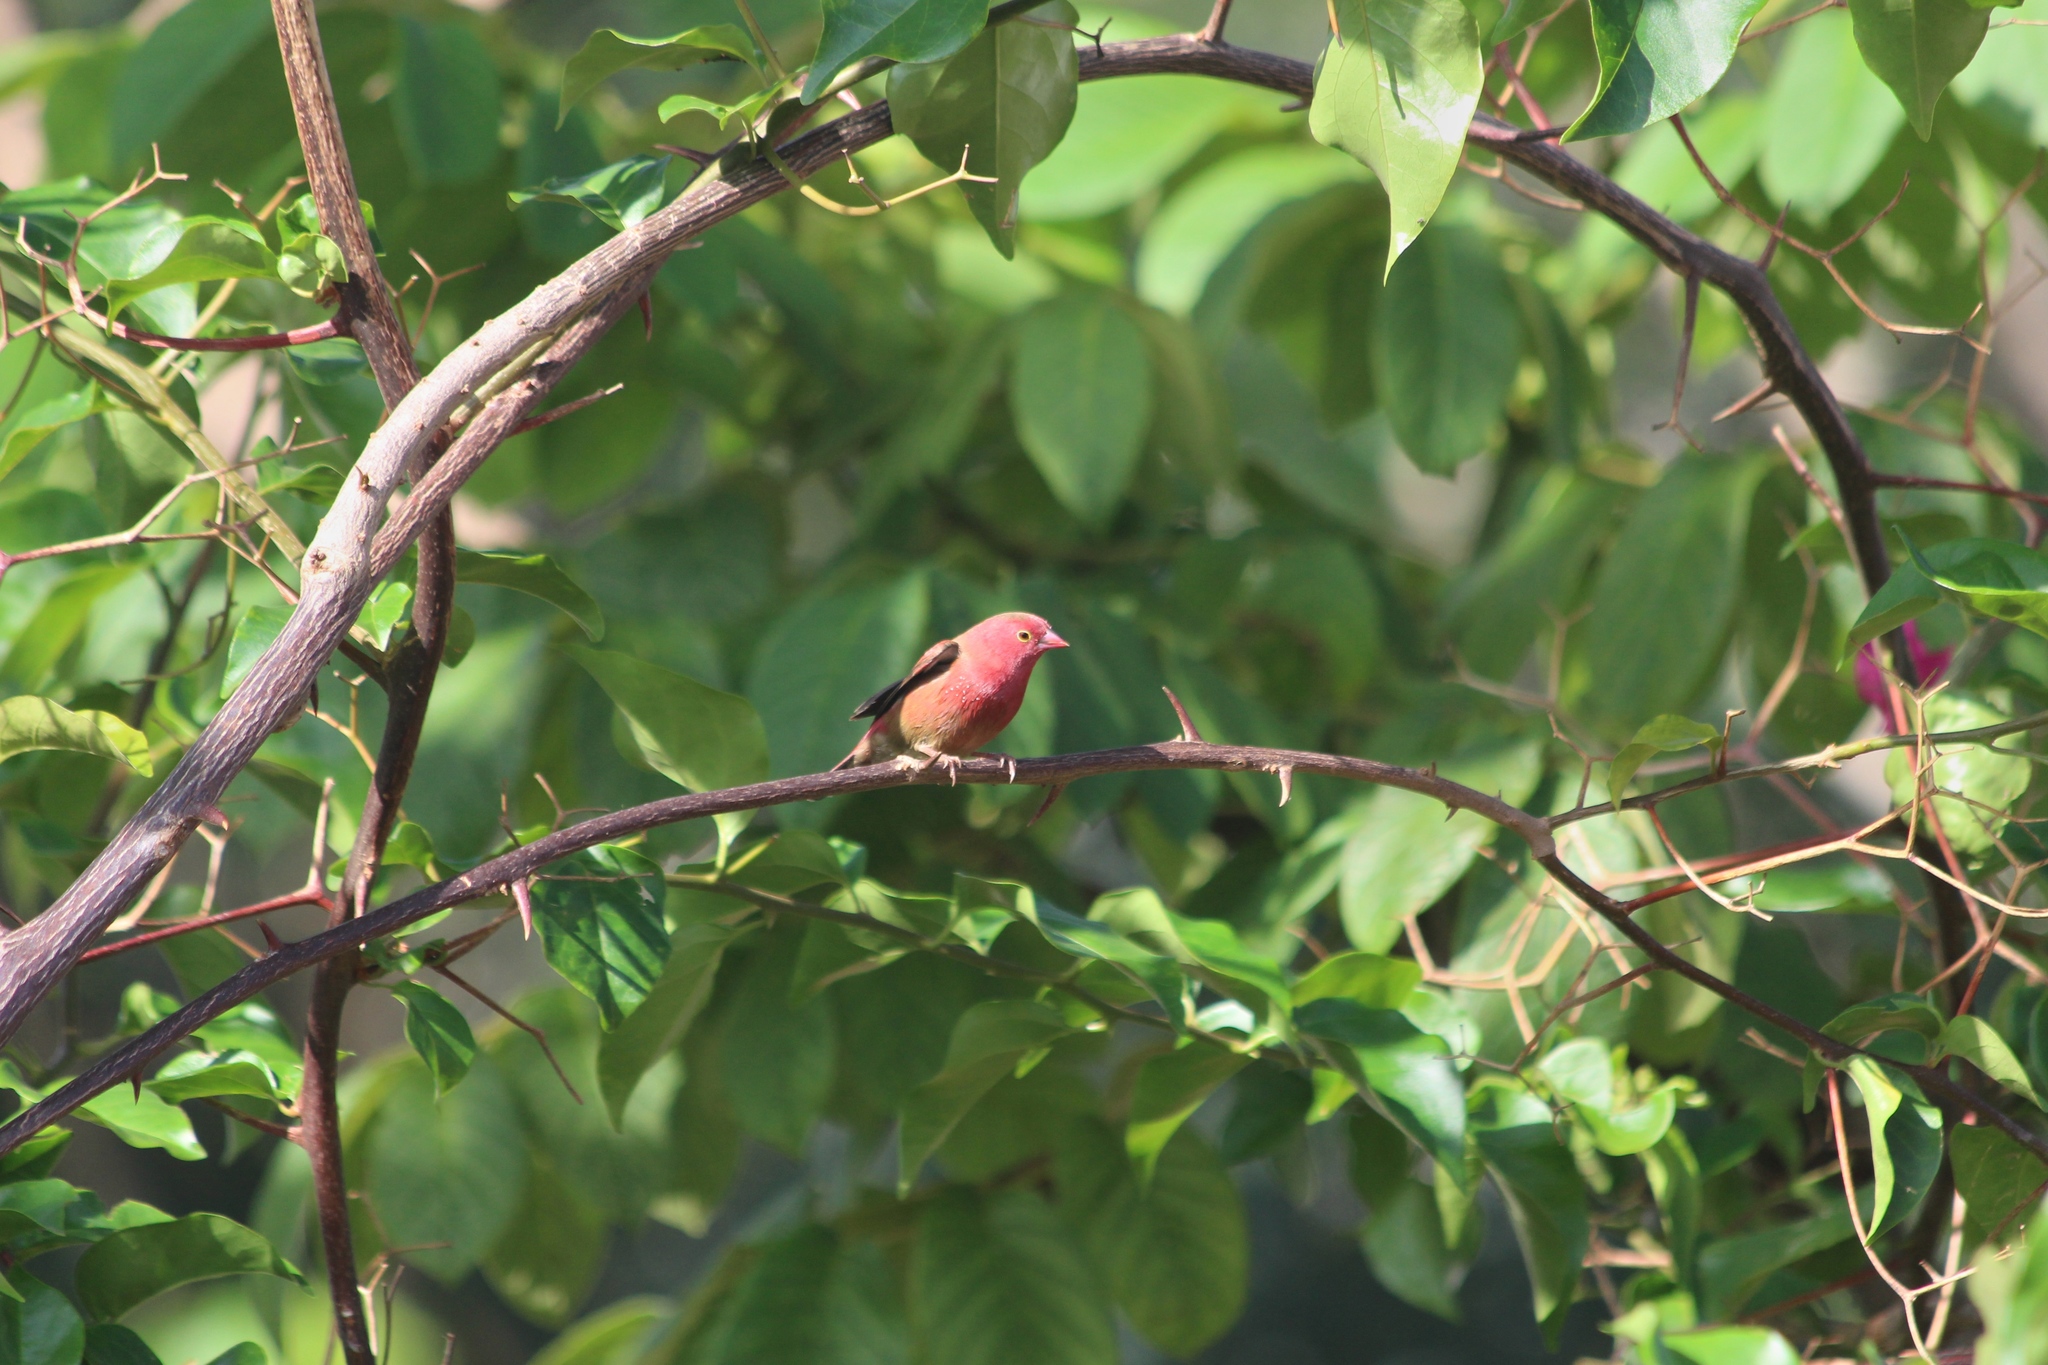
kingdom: Animalia
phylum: Chordata
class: Aves
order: Passeriformes
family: Estrildidae
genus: Lagonosticta
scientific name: Lagonosticta senegala
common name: Red-billed firefinch
